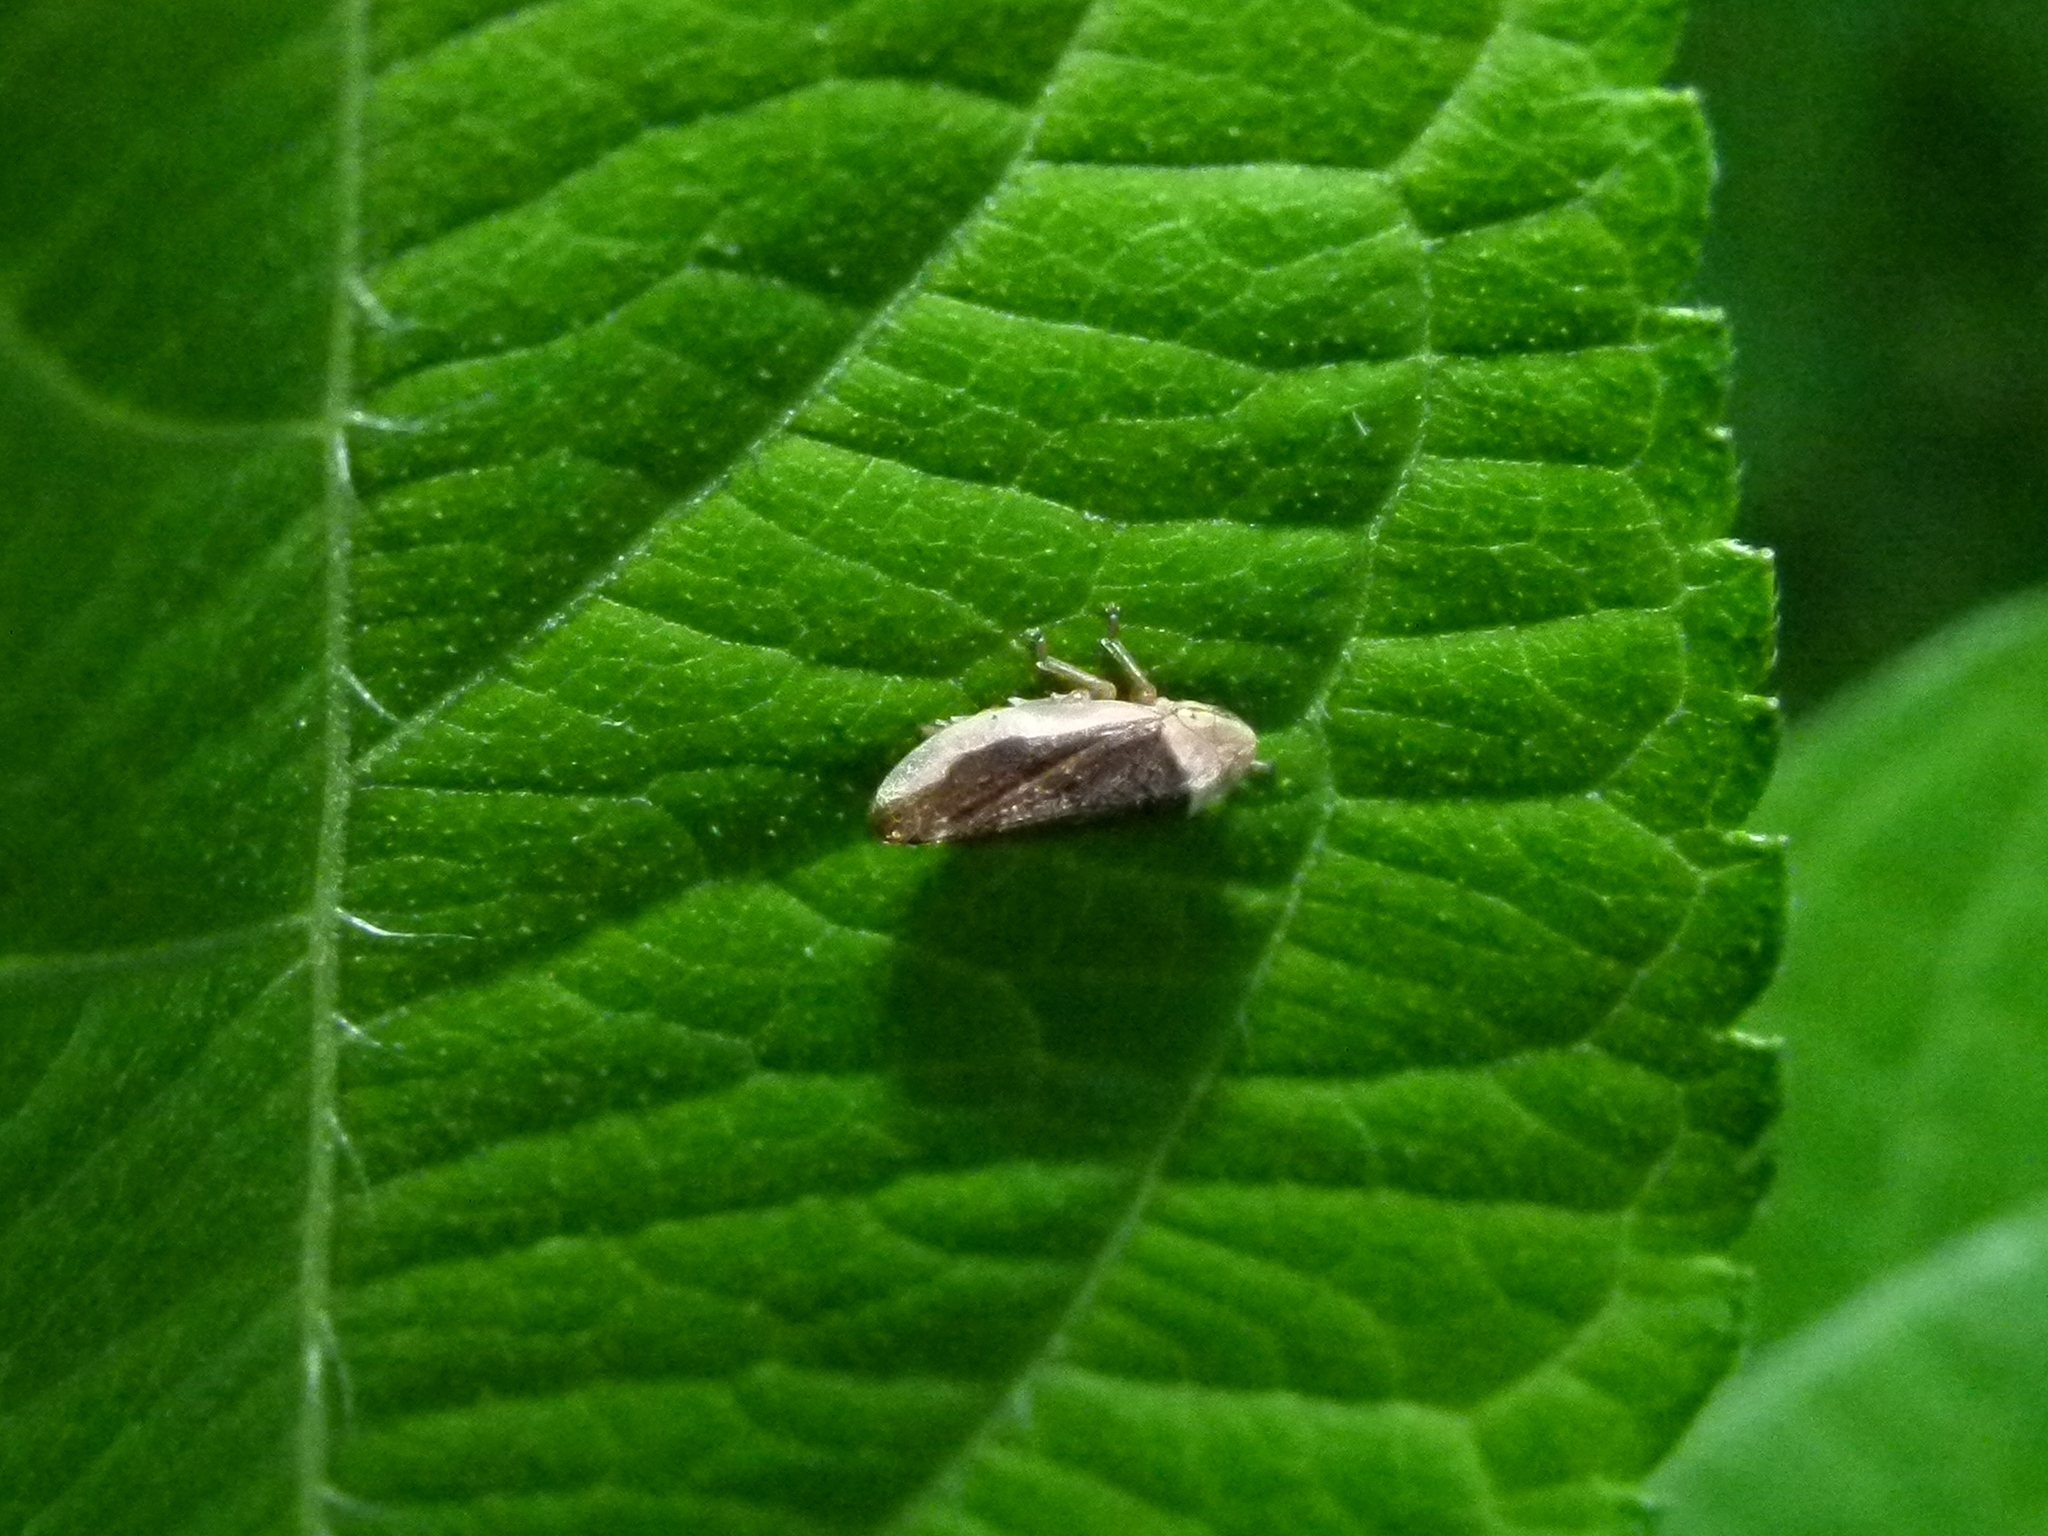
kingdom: Animalia
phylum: Arthropoda
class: Insecta
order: Hemiptera
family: Aphrophoridae
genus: Philaenus
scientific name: Philaenus spumarius
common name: Meadow spittlebug
